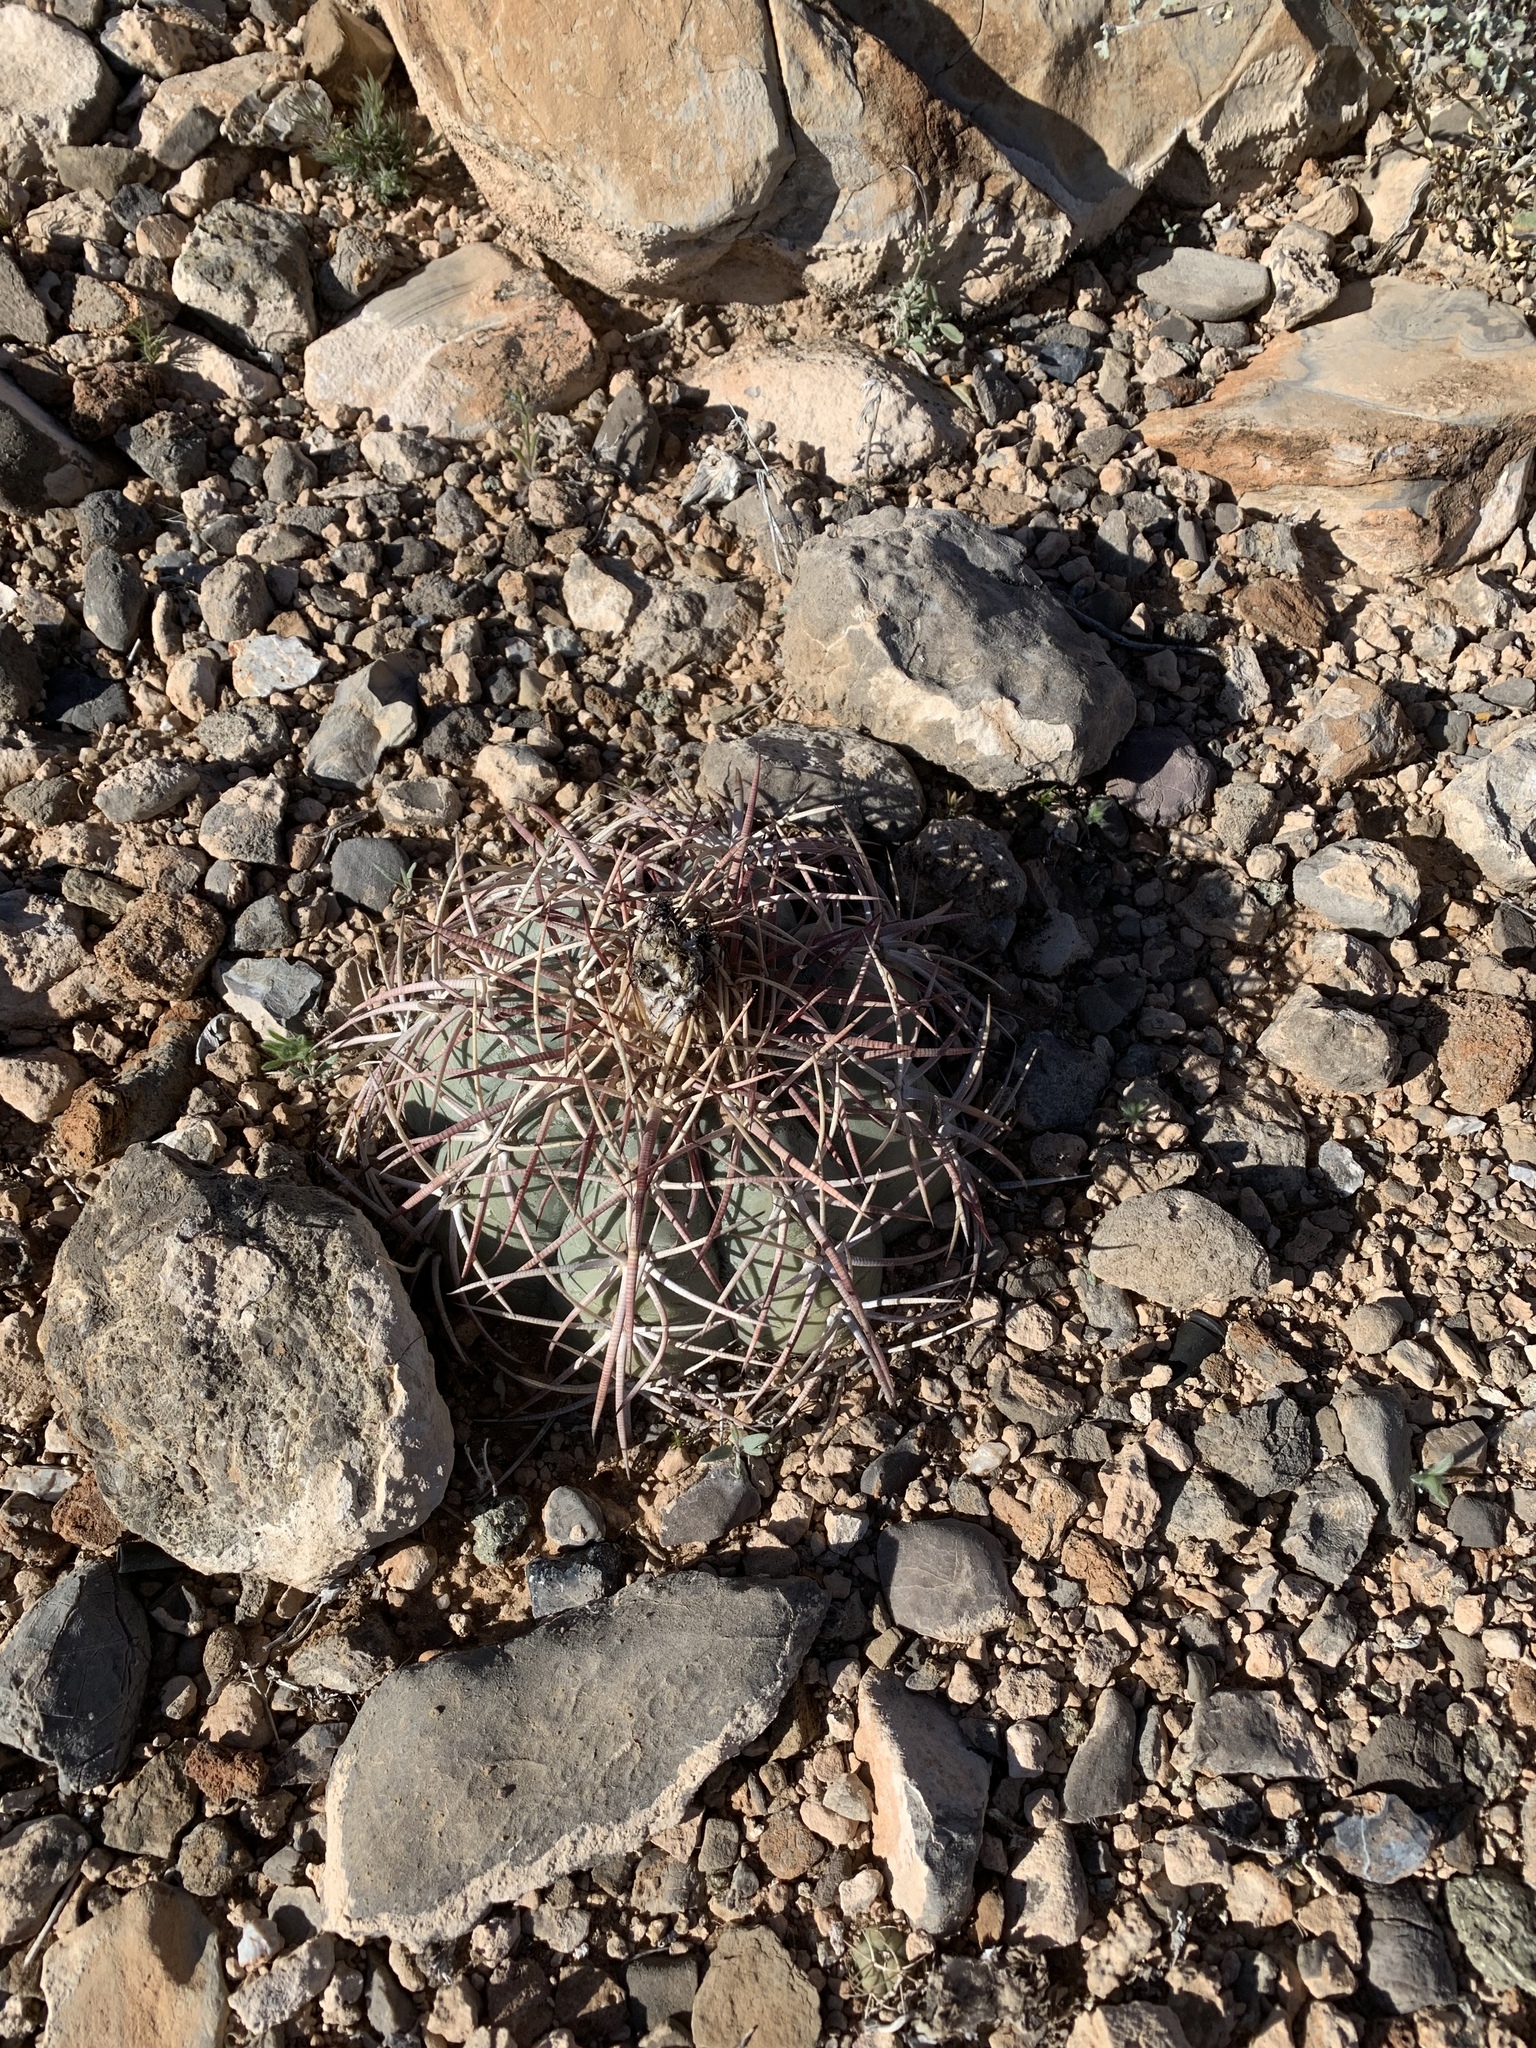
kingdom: Plantae
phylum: Tracheophyta
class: Magnoliopsida
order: Caryophyllales
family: Cactaceae
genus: Echinocactus
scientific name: Echinocactus horizonthalonius
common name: Devilshead
